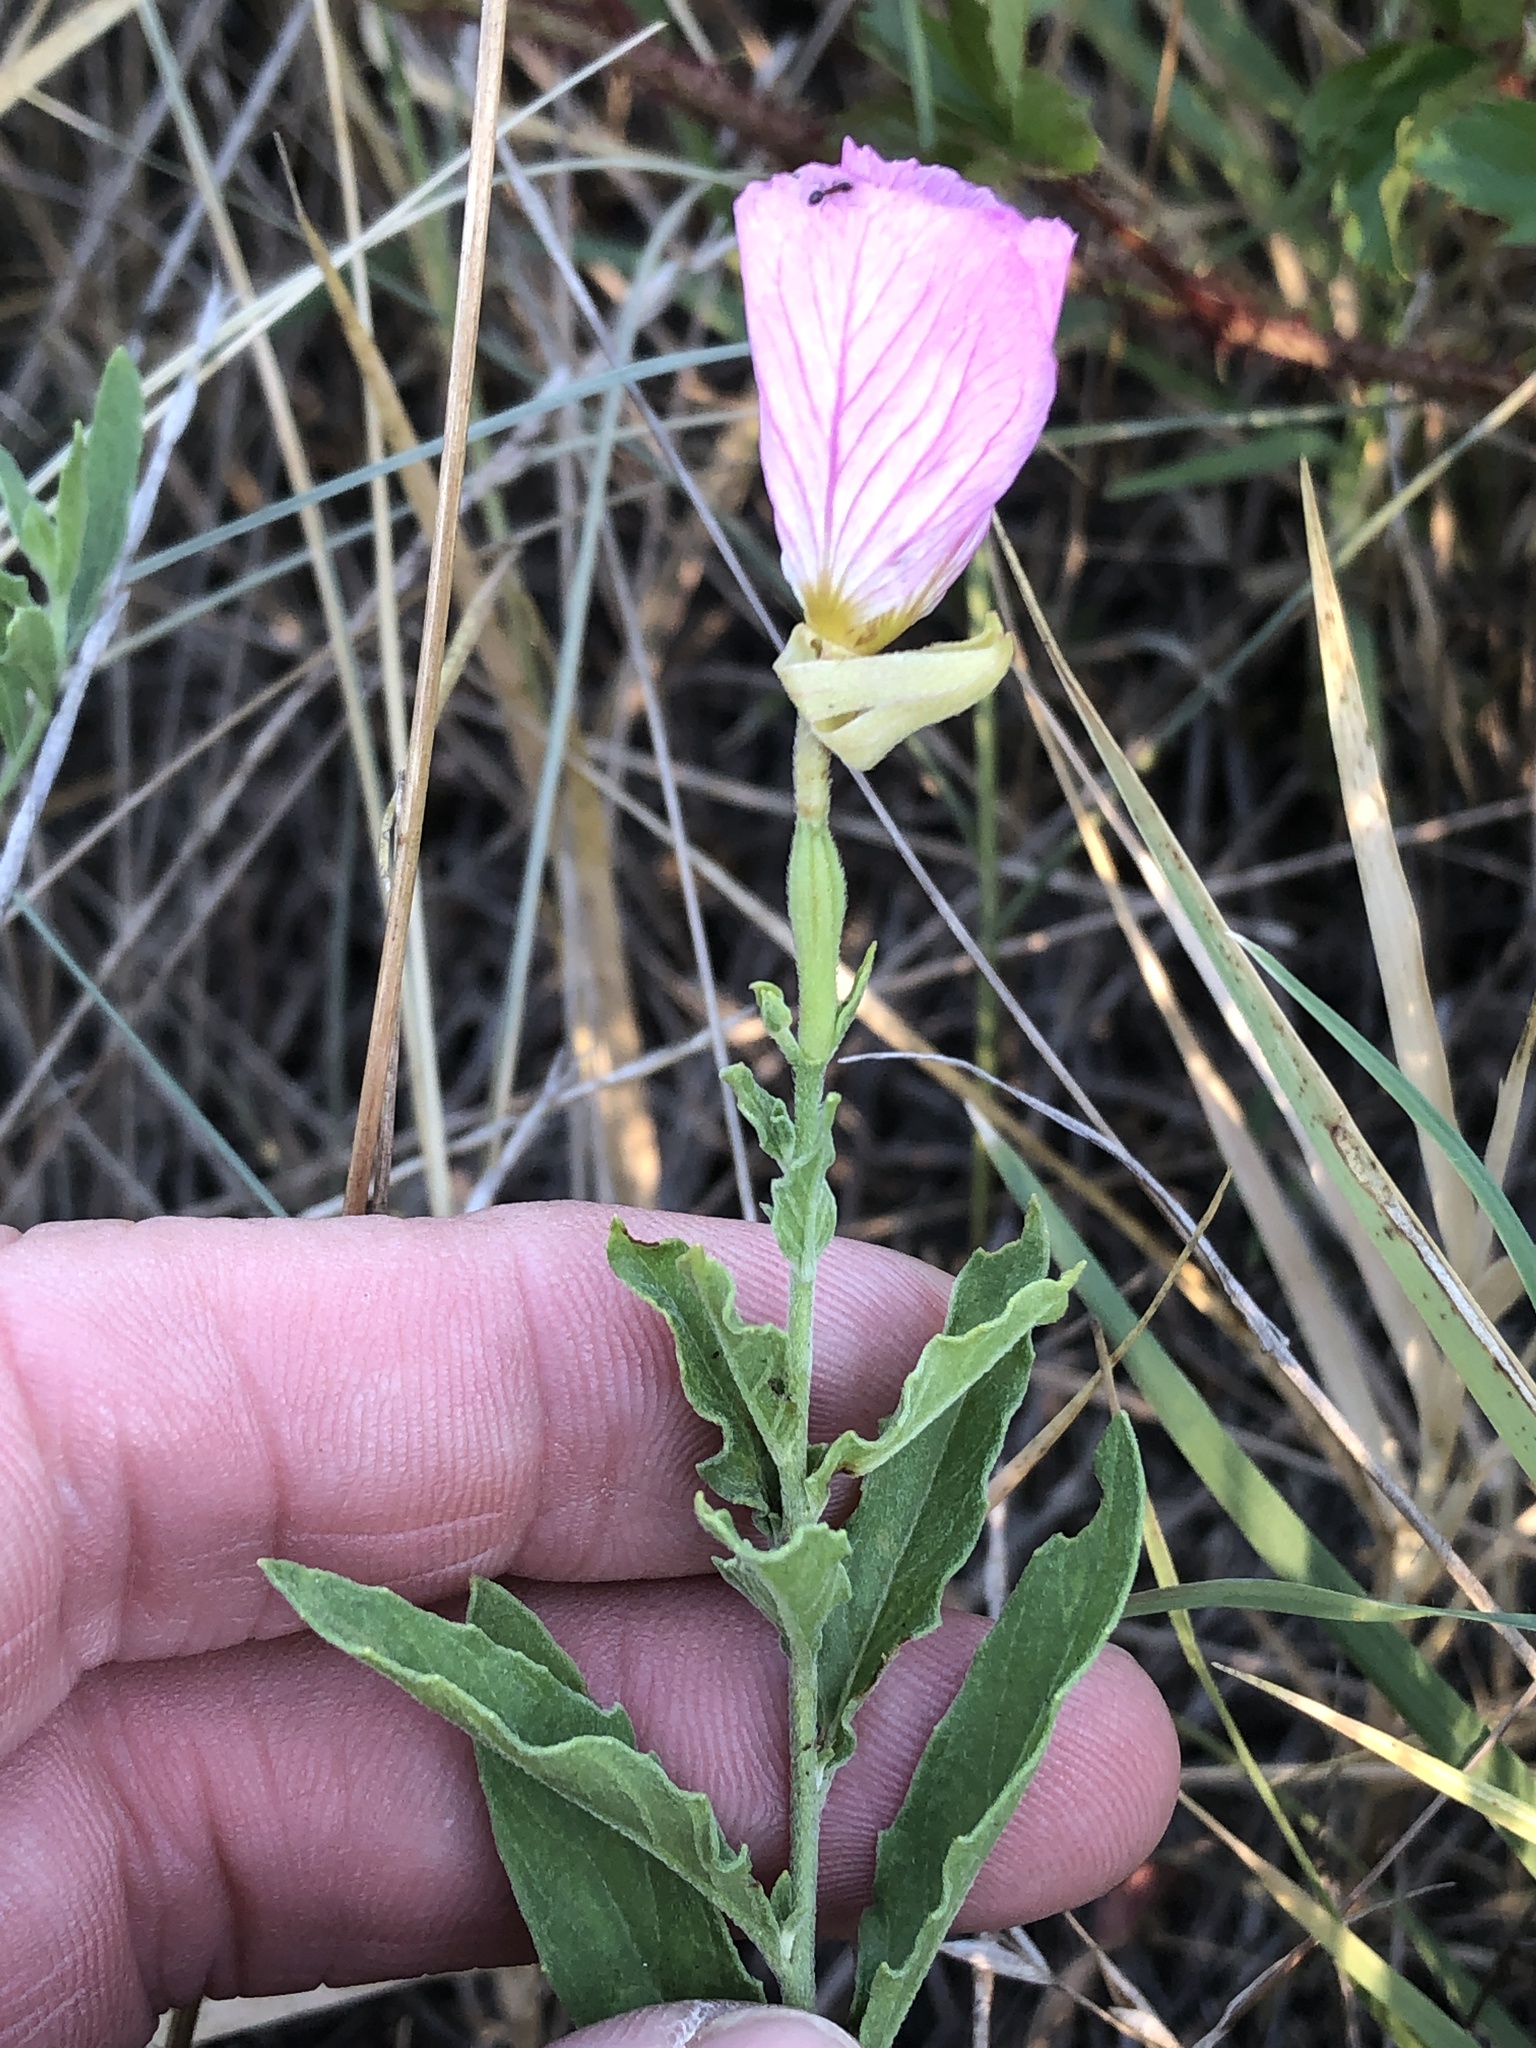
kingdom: Plantae
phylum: Tracheophyta
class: Magnoliopsida
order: Myrtales
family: Onagraceae
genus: Oenothera
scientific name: Oenothera speciosa
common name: White evening-primrose
